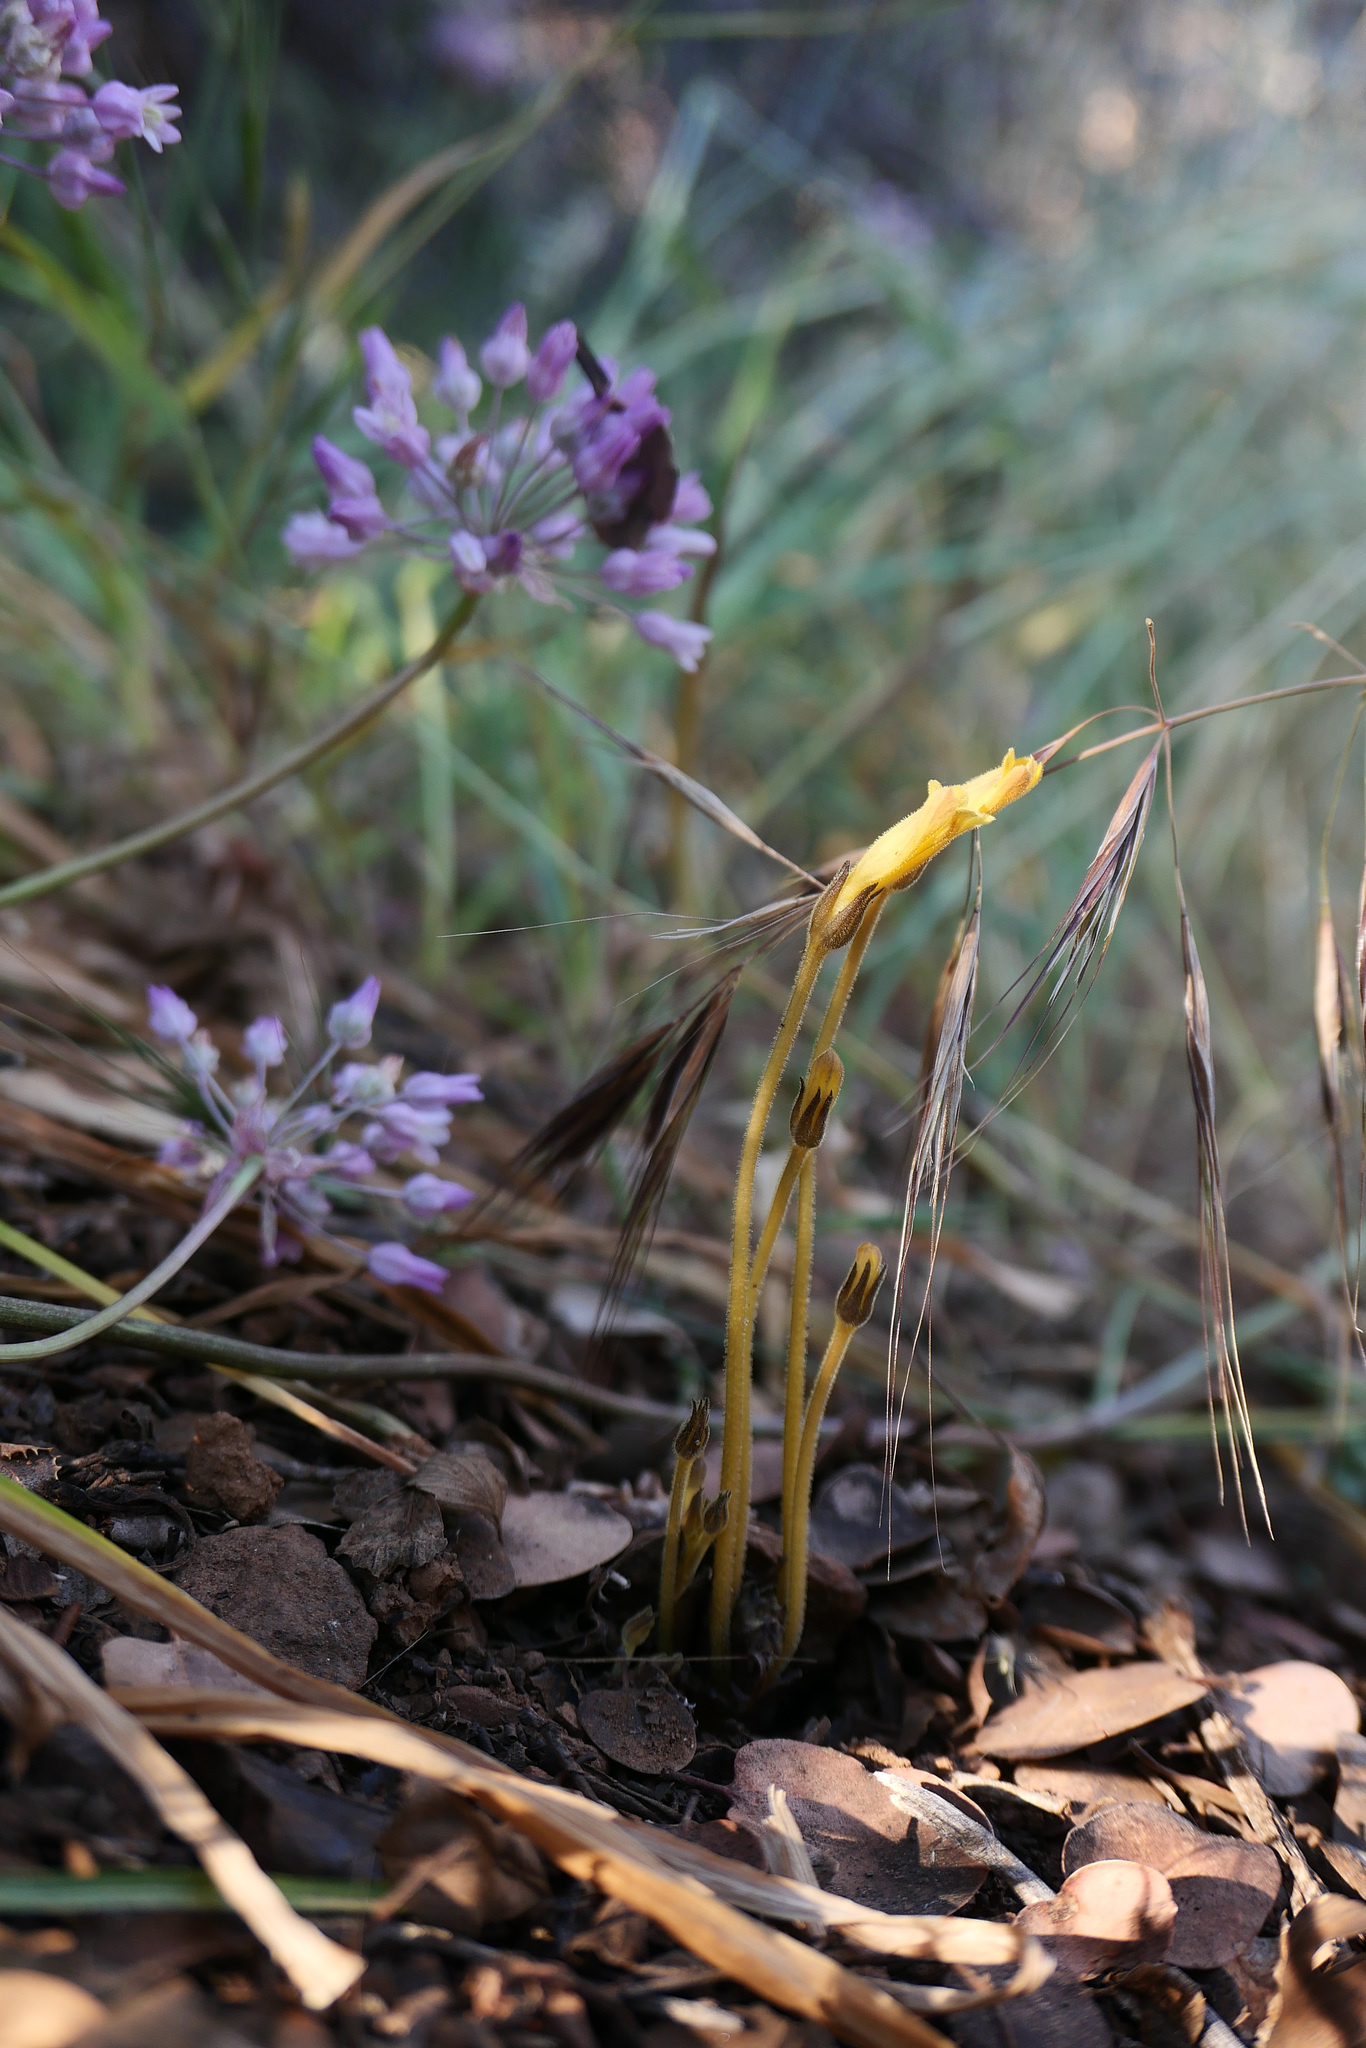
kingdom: Plantae
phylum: Tracheophyta
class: Magnoliopsida
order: Lamiales
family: Orobanchaceae
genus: Aphyllon
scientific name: Aphyllon franciscanum
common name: San francisco broomrape
